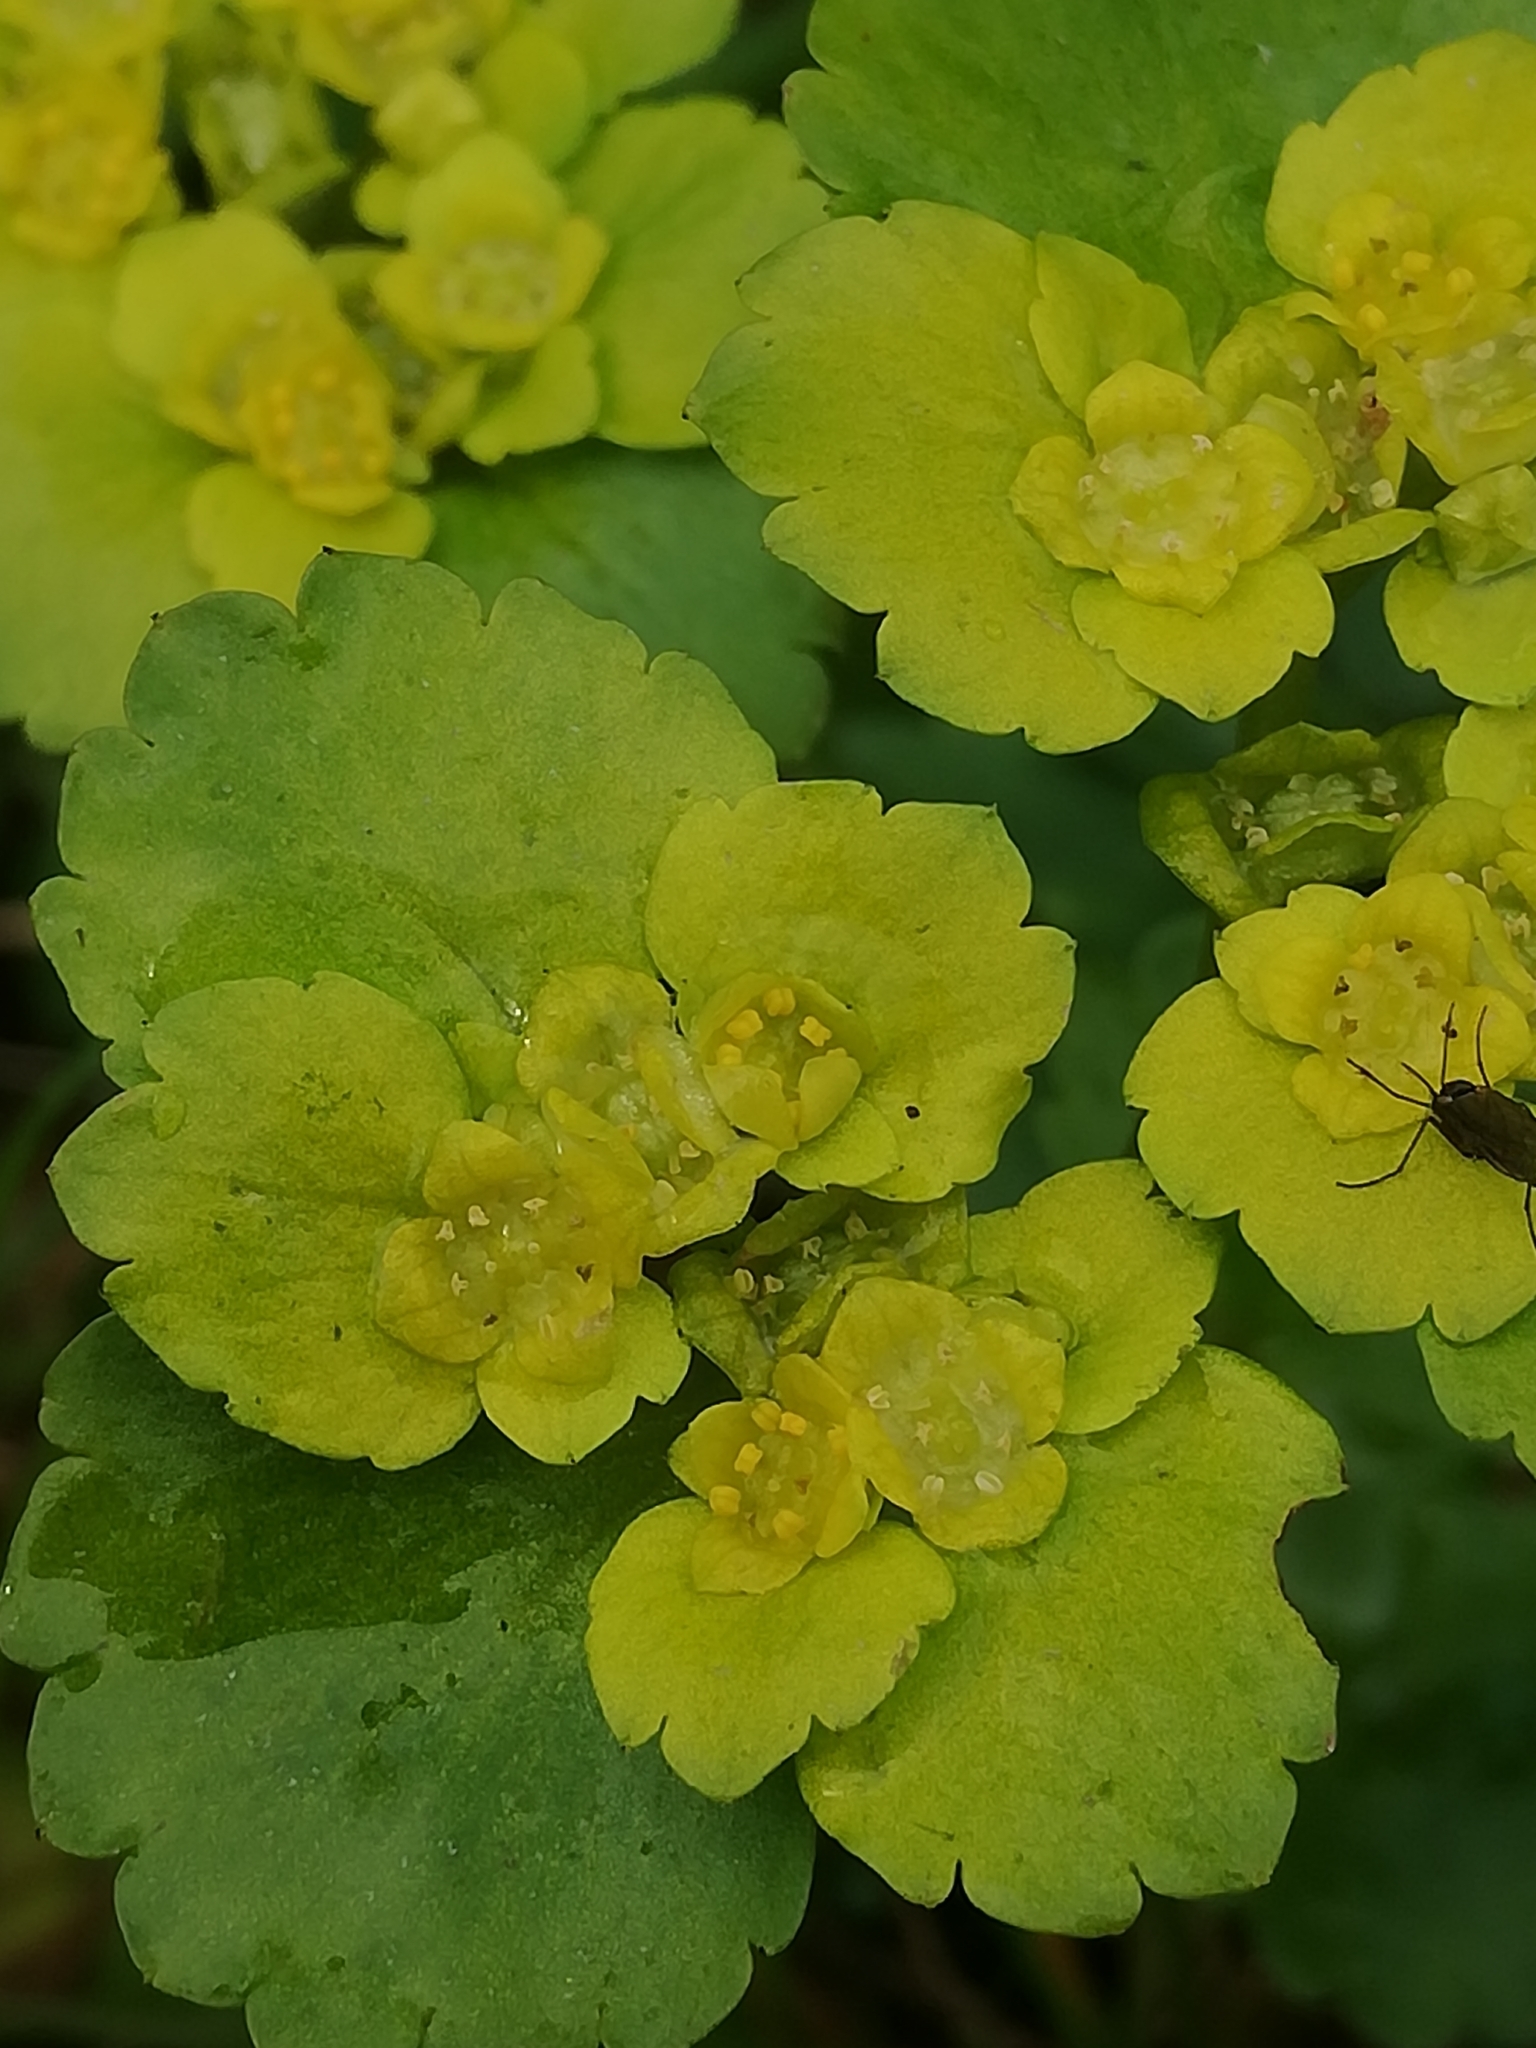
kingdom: Plantae
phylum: Tracheophyta
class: Magnoliopsida
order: Saxifragales
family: Saxifragaceae
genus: Chrysosplenium
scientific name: Chrysosplenium alternifolium
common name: Alternate-leaved golden-saxifrage
